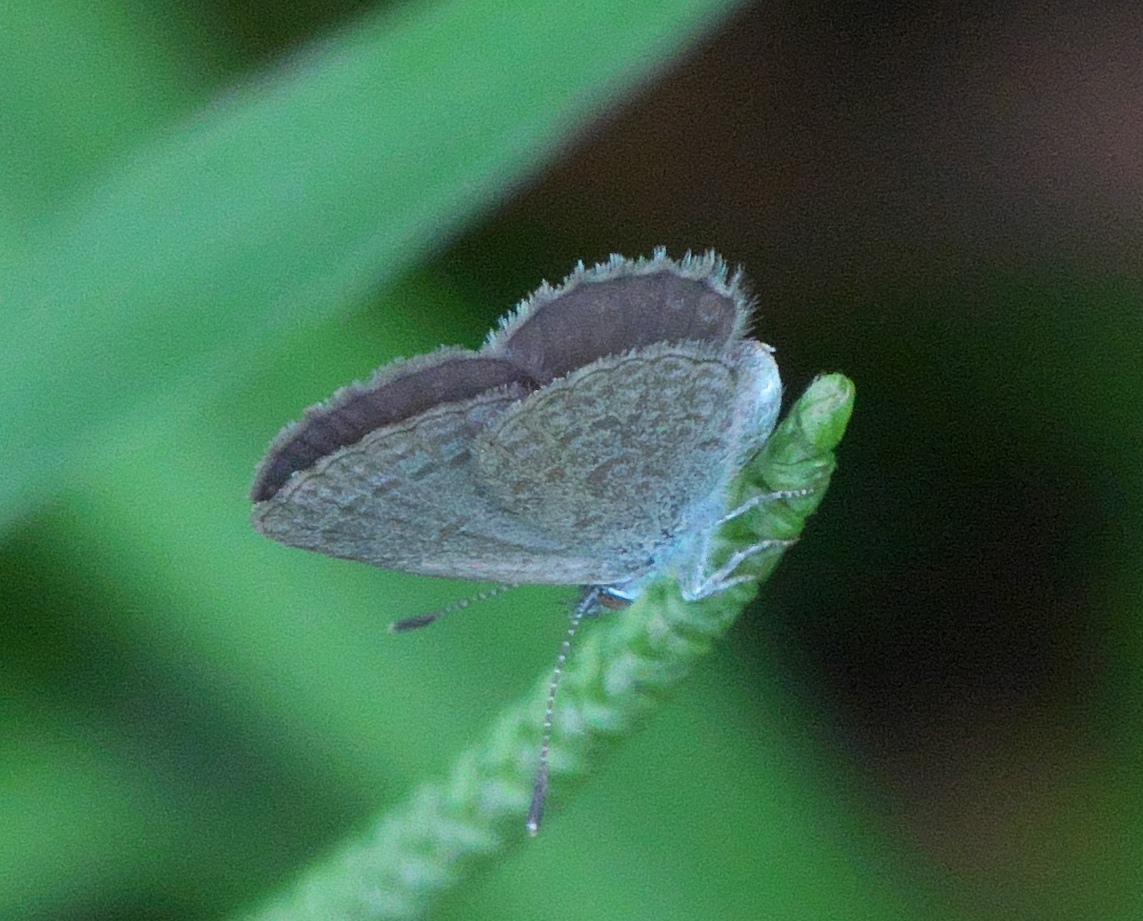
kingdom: Animalia
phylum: Arthropoda
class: Insecta
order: Lepidoptera
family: Lycaenidae
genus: Zizina
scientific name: Zizina otis
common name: Lesser grass blue
